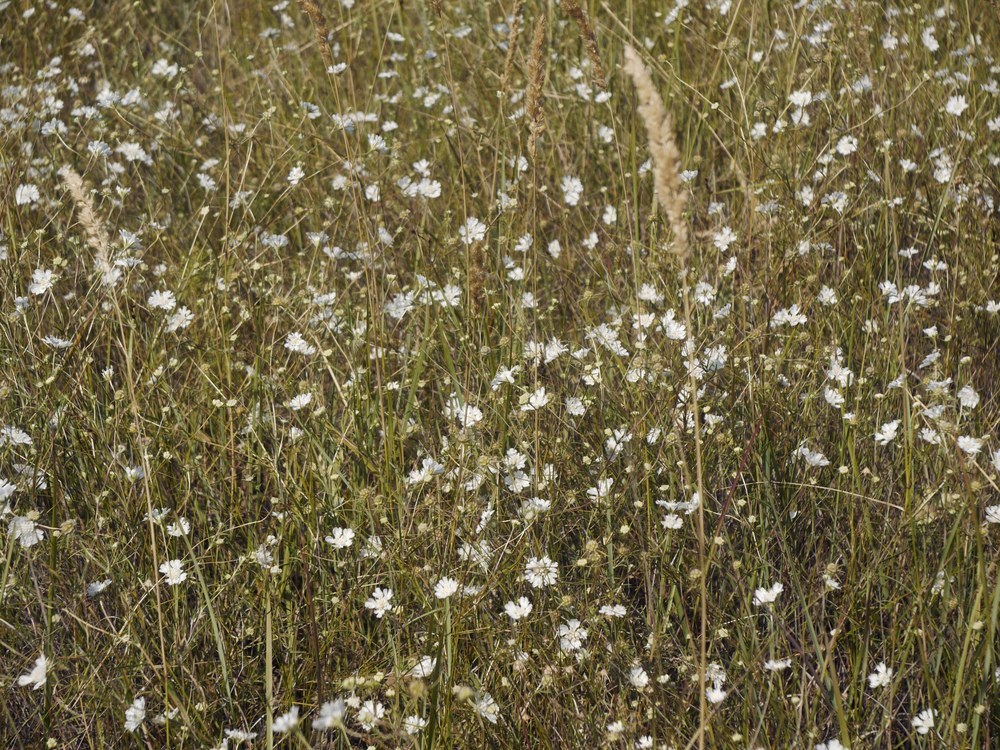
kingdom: Plantae
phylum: Tracheophyta
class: Magnoliopsida
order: Dipsacales
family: Caprifoliaceae
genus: Lomelosia
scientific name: Lomelosia argentea
